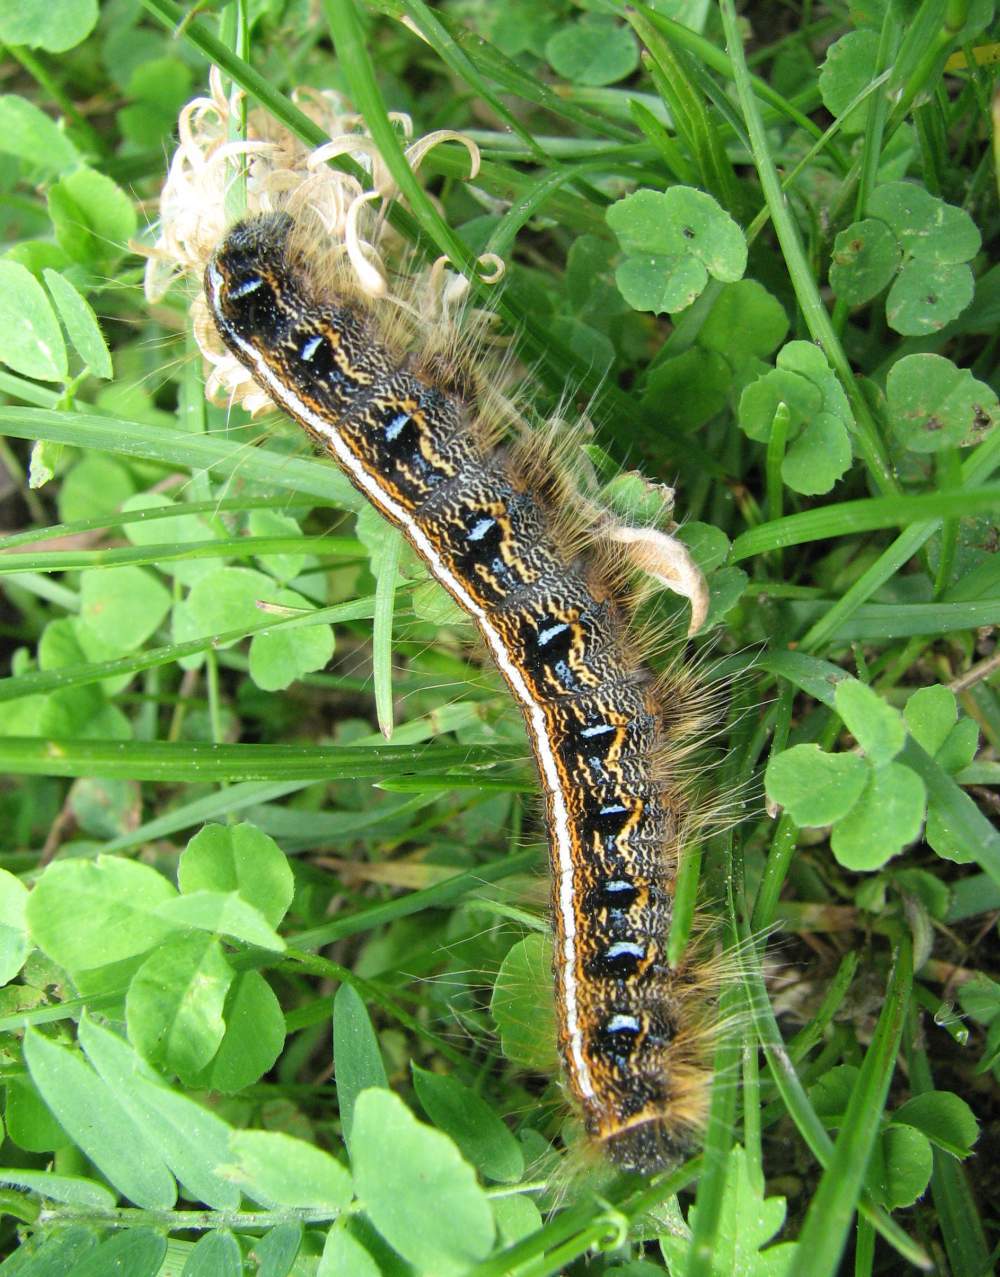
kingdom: Animalia
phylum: Arthropoda
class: Insecta
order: Lepidoptera
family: Lasiocampidae
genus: Malacosoma
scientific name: Malacosoma americana
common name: Eastern tent caterpillar moth
